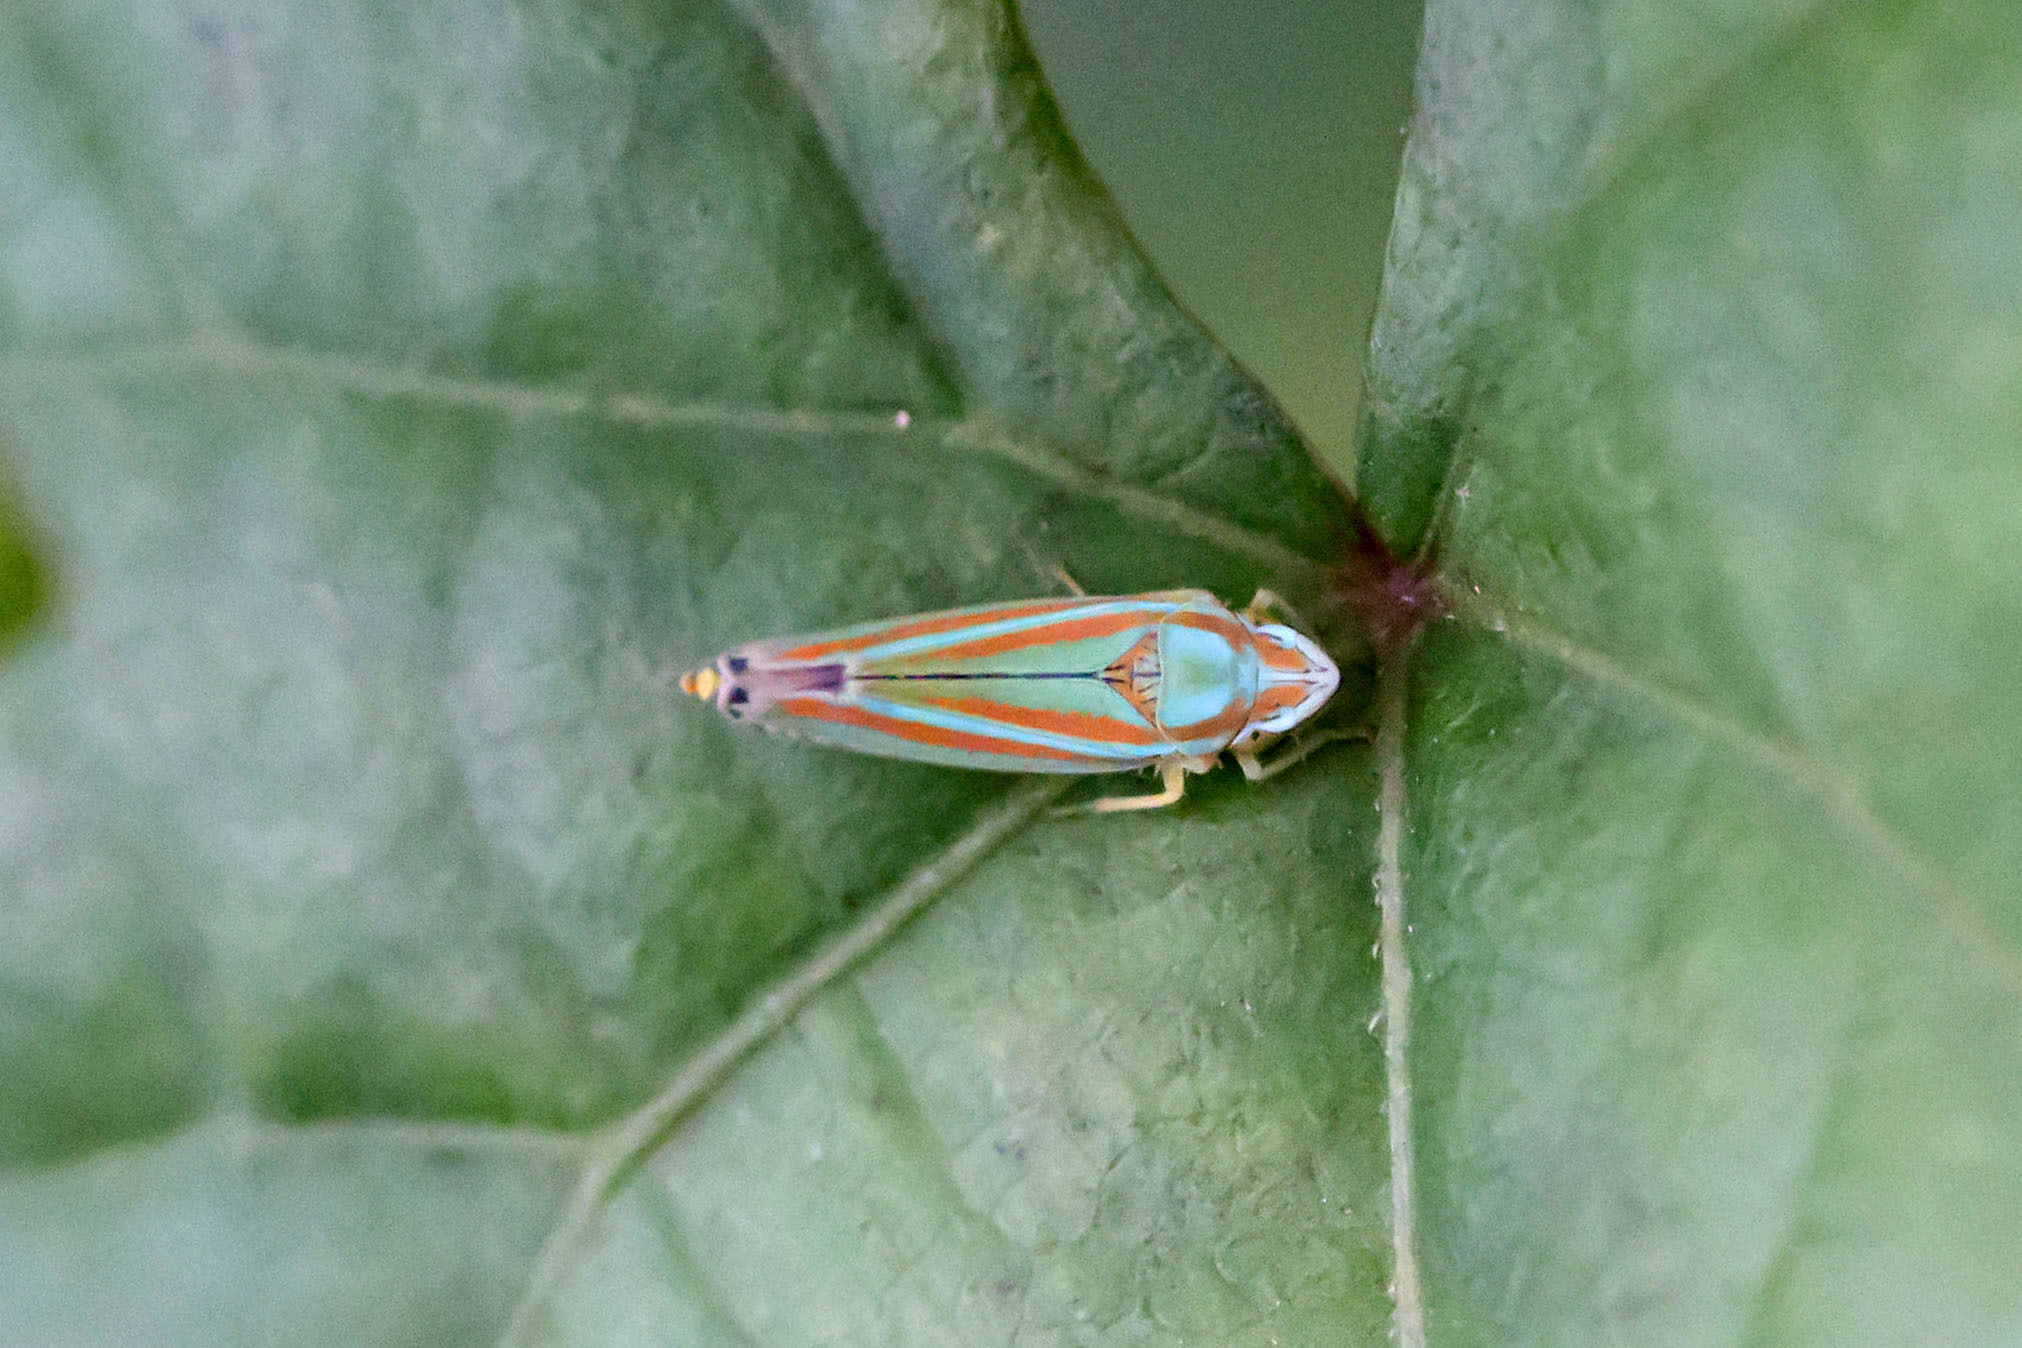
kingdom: Animalia
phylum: Arthropoda
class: Insecta
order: Hemiptera
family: Cicadellidae
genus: Graphocephala
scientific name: Graphocephala versuta
